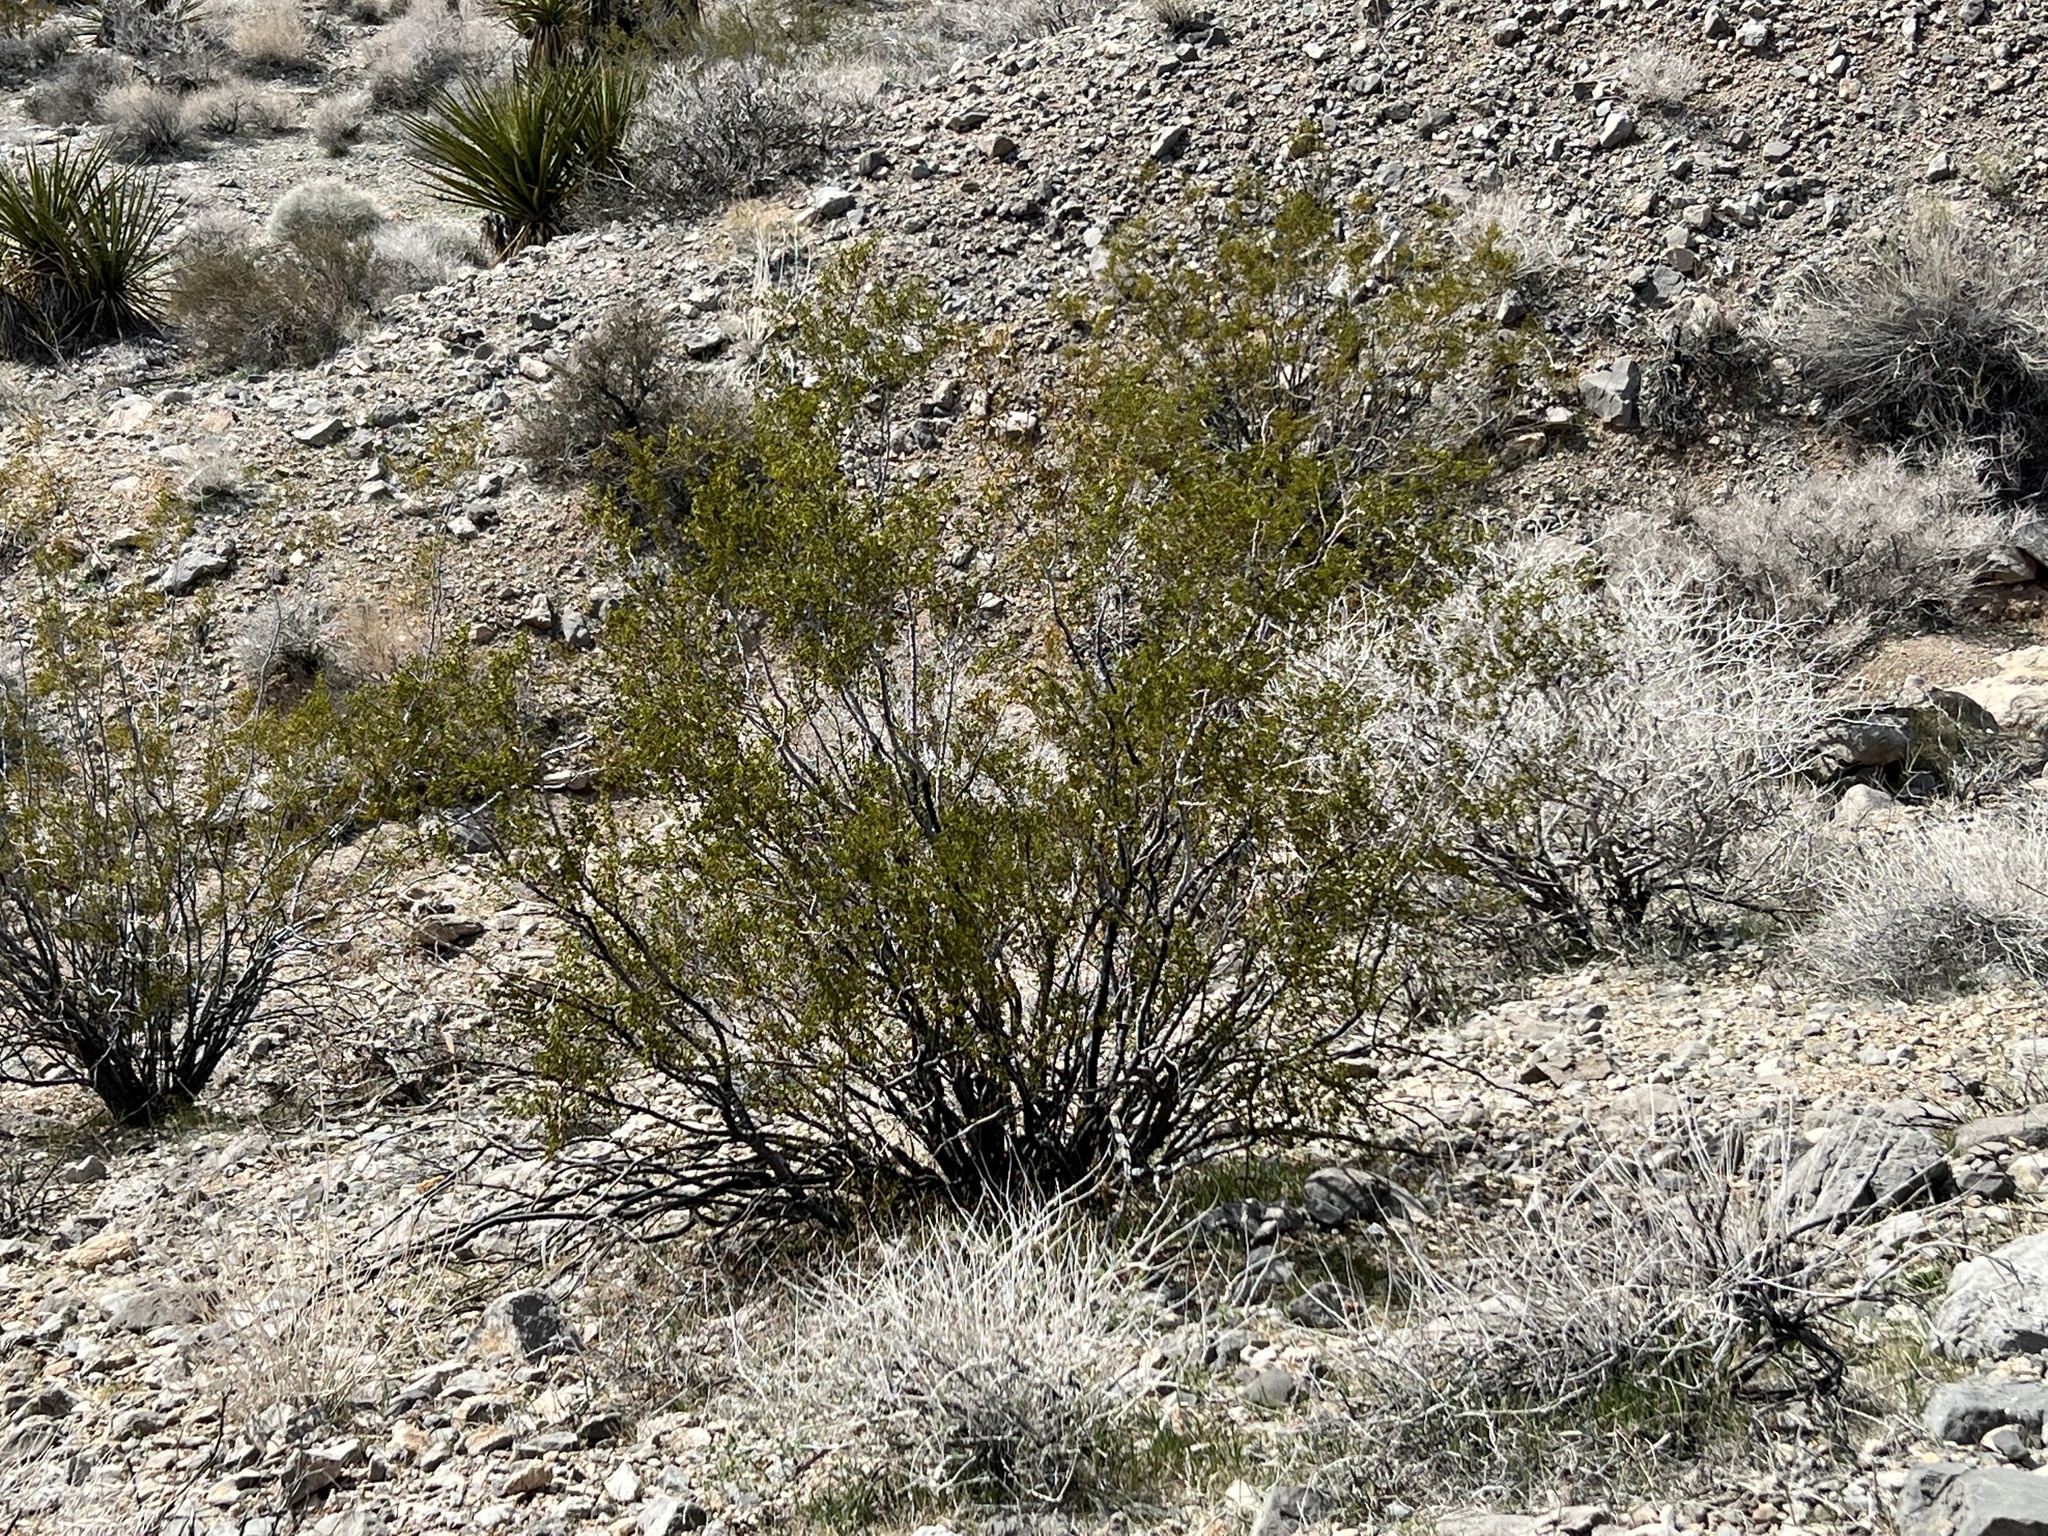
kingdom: Plantae
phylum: Tracheophyta
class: Magnoliopsida
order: Zygophyllales
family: Zygophyllaceae
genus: Larrea
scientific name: Larrea tridentata
